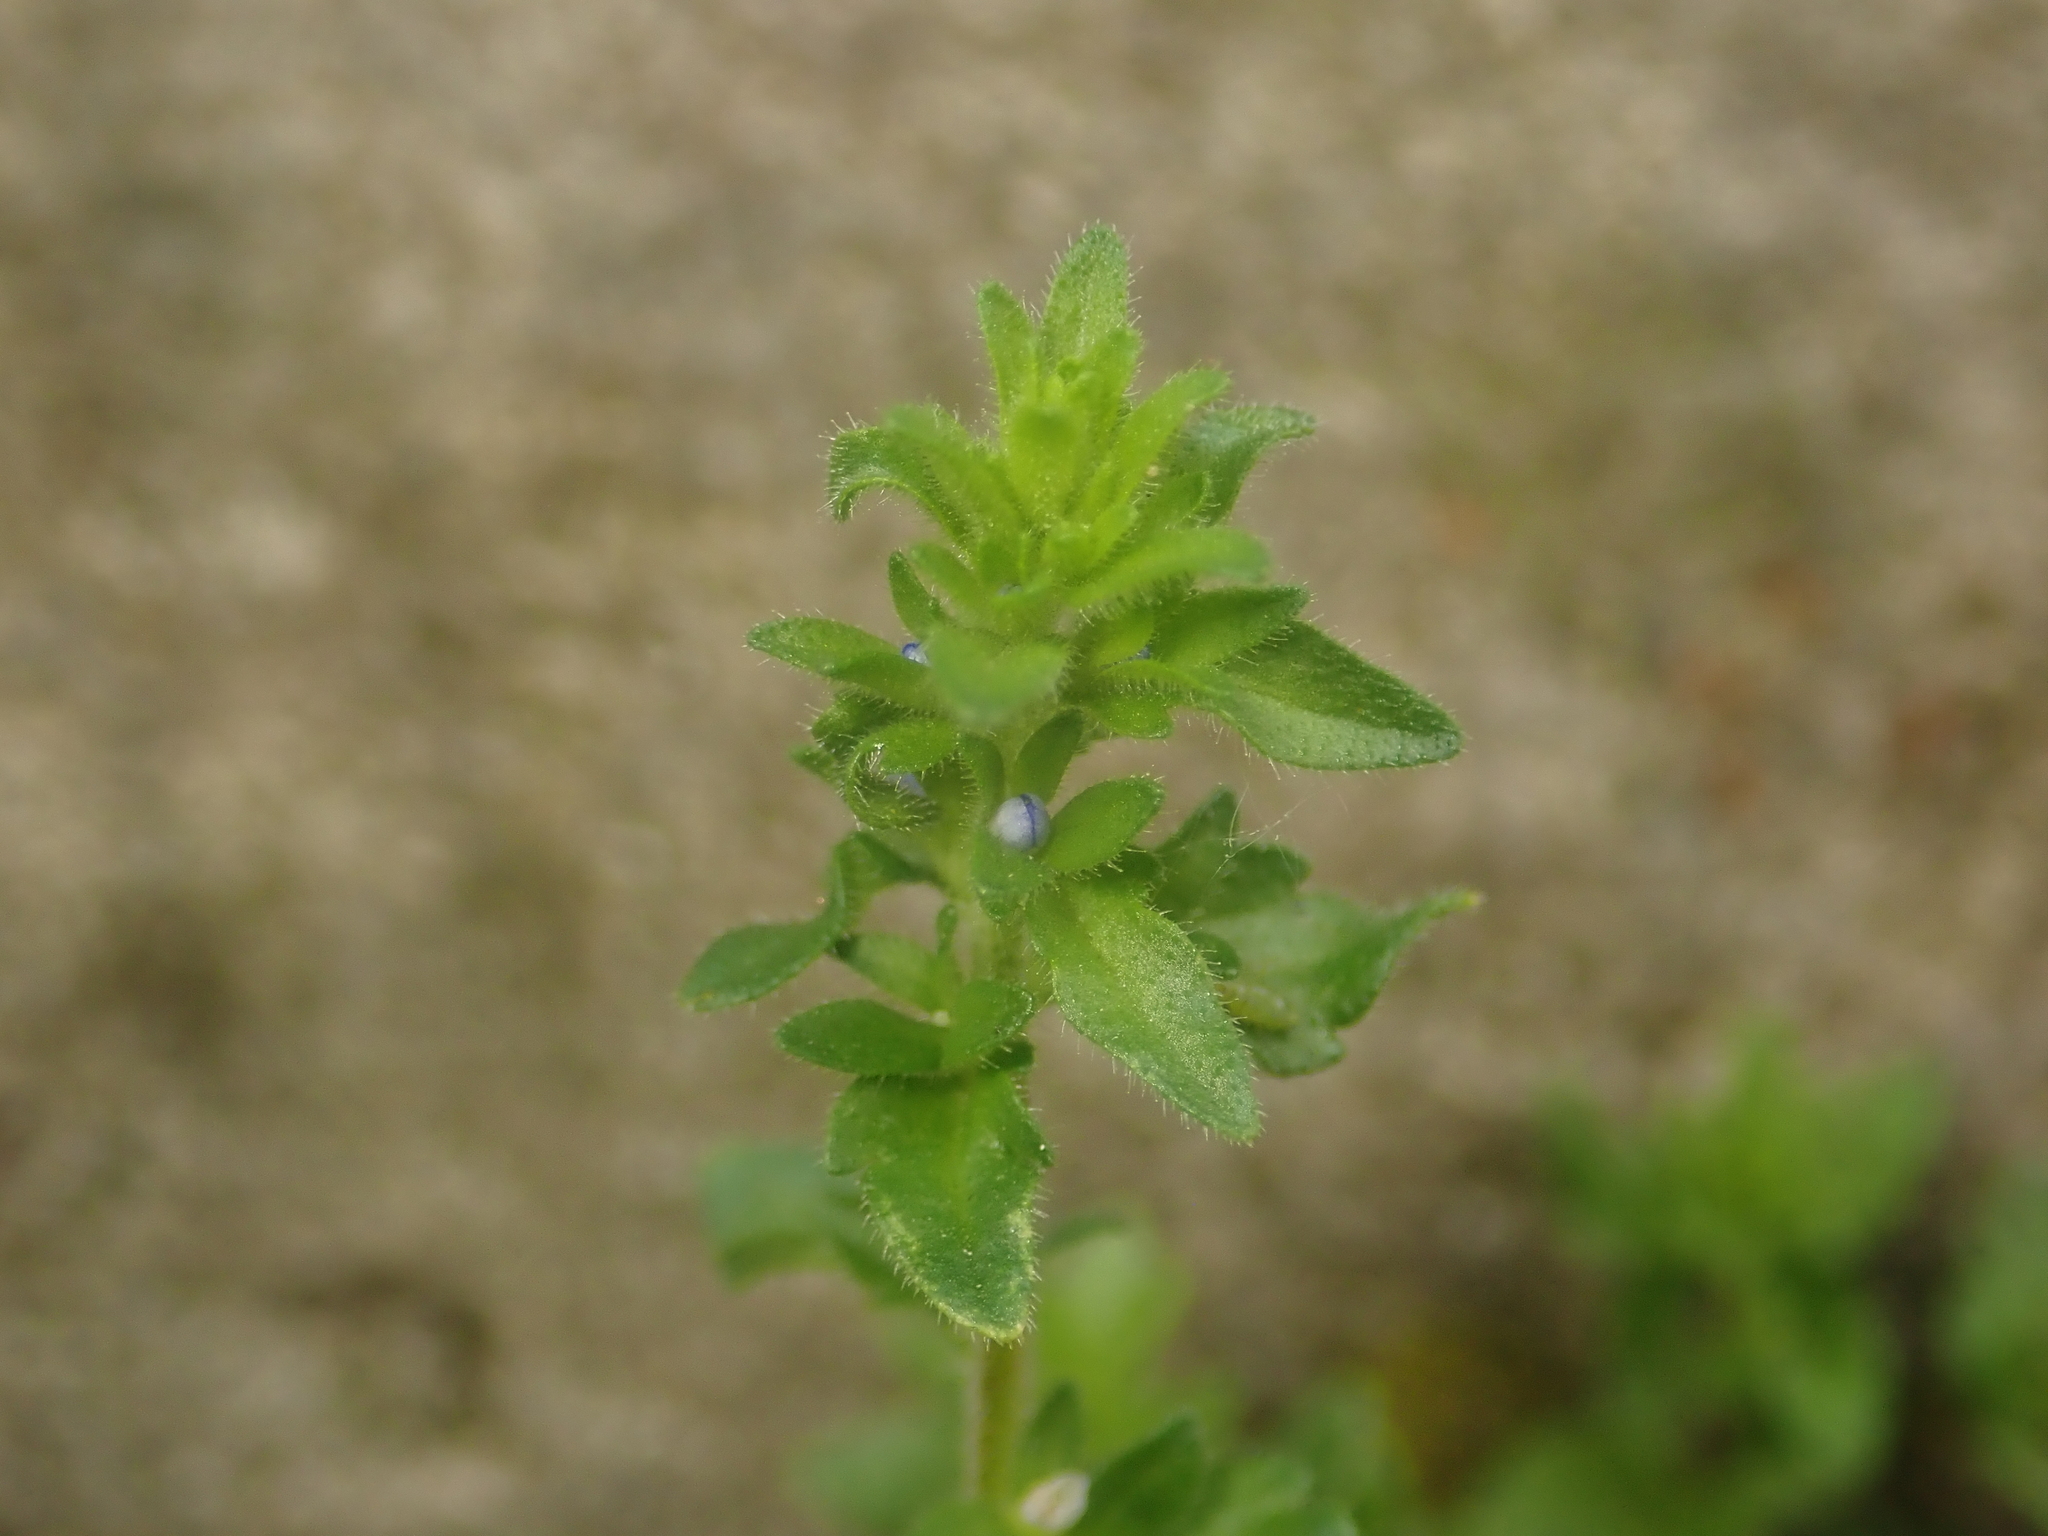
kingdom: Plantae
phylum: Tracheophyta
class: Magnoliopsida
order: Lamiales
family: Plantaginaceae
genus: Veronica
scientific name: Veronica arvensis
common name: Corn speedwell
